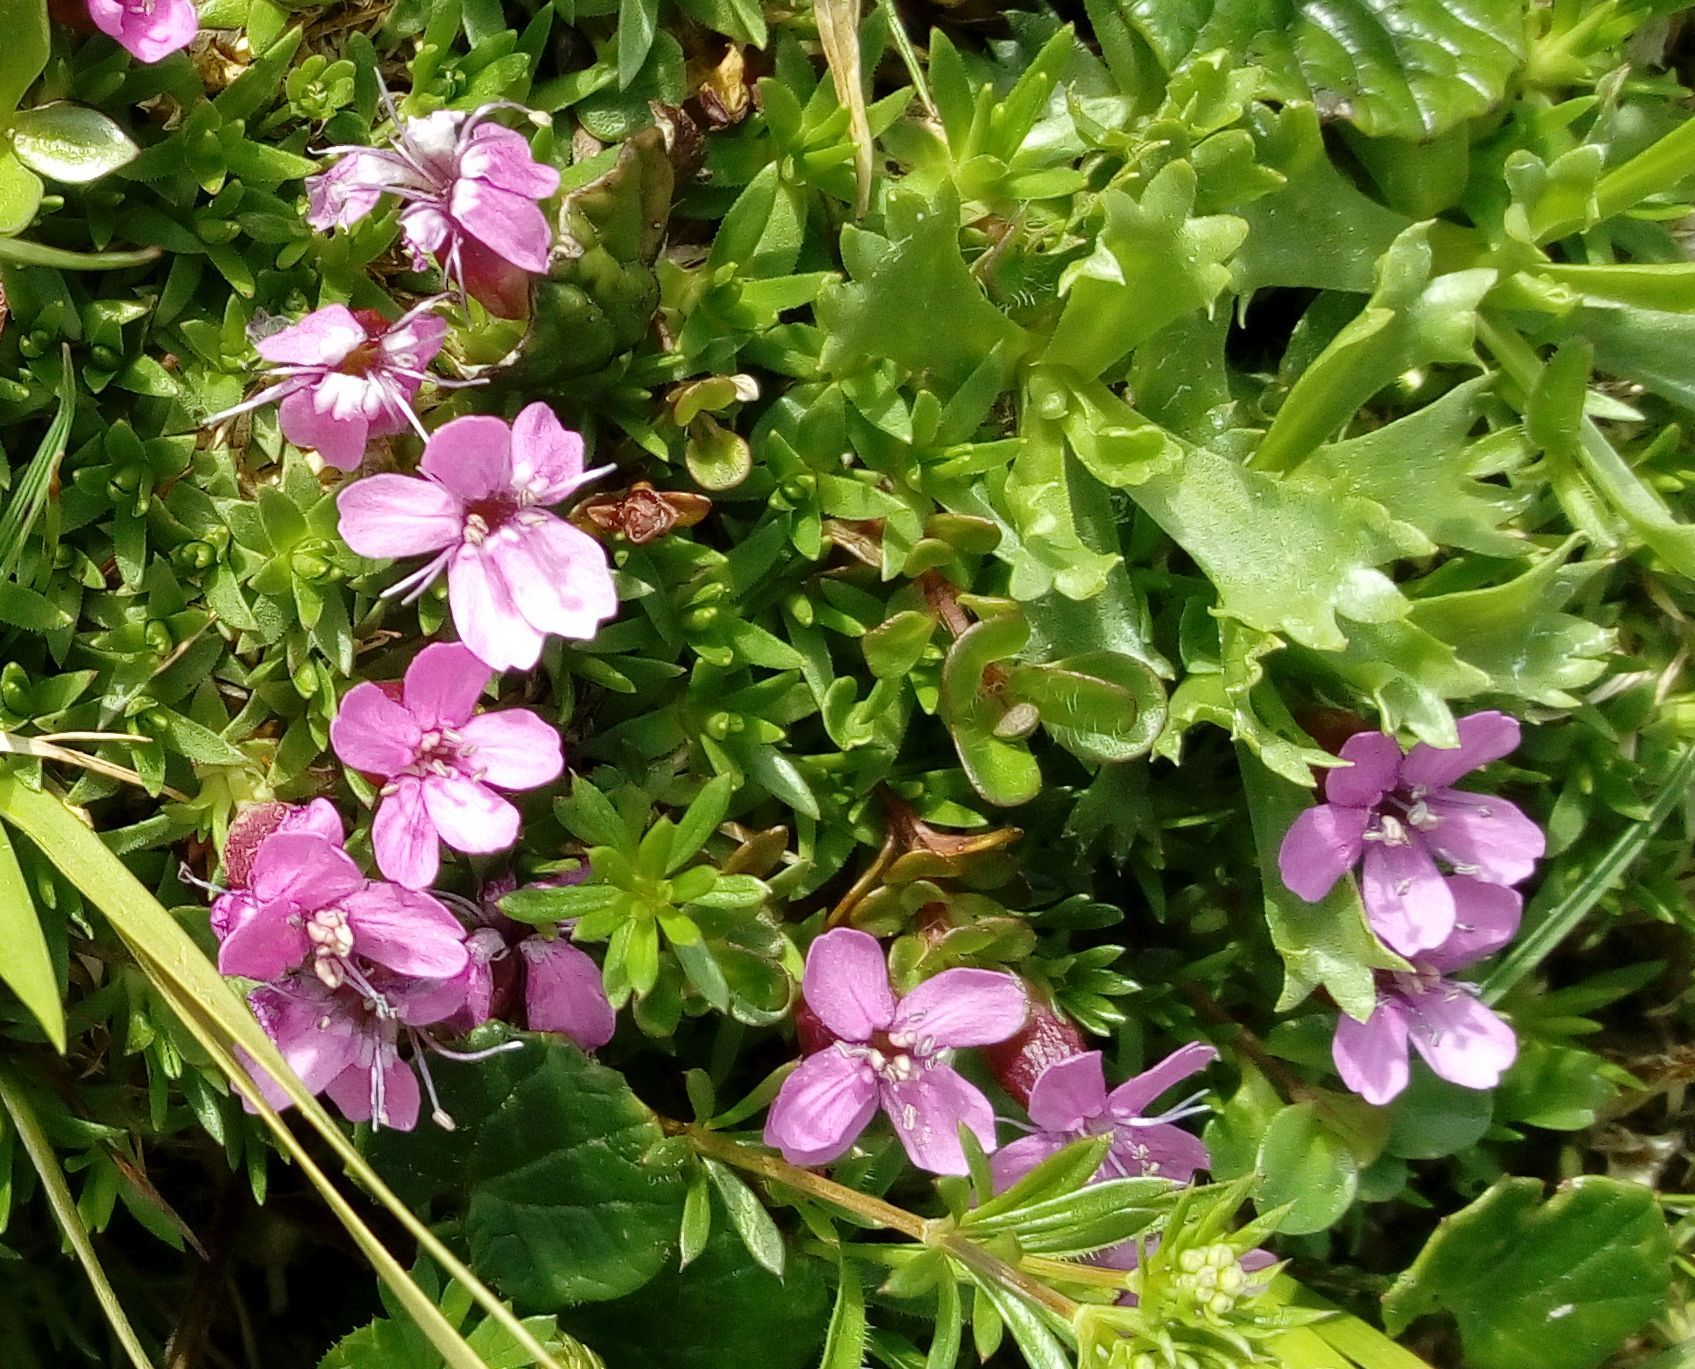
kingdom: Plantae
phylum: Tracheophyta
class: Magnoliopsida
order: Caryophyllales
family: Caryophyllaceae
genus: Silene
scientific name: Silene acaulis
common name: Moss campion
